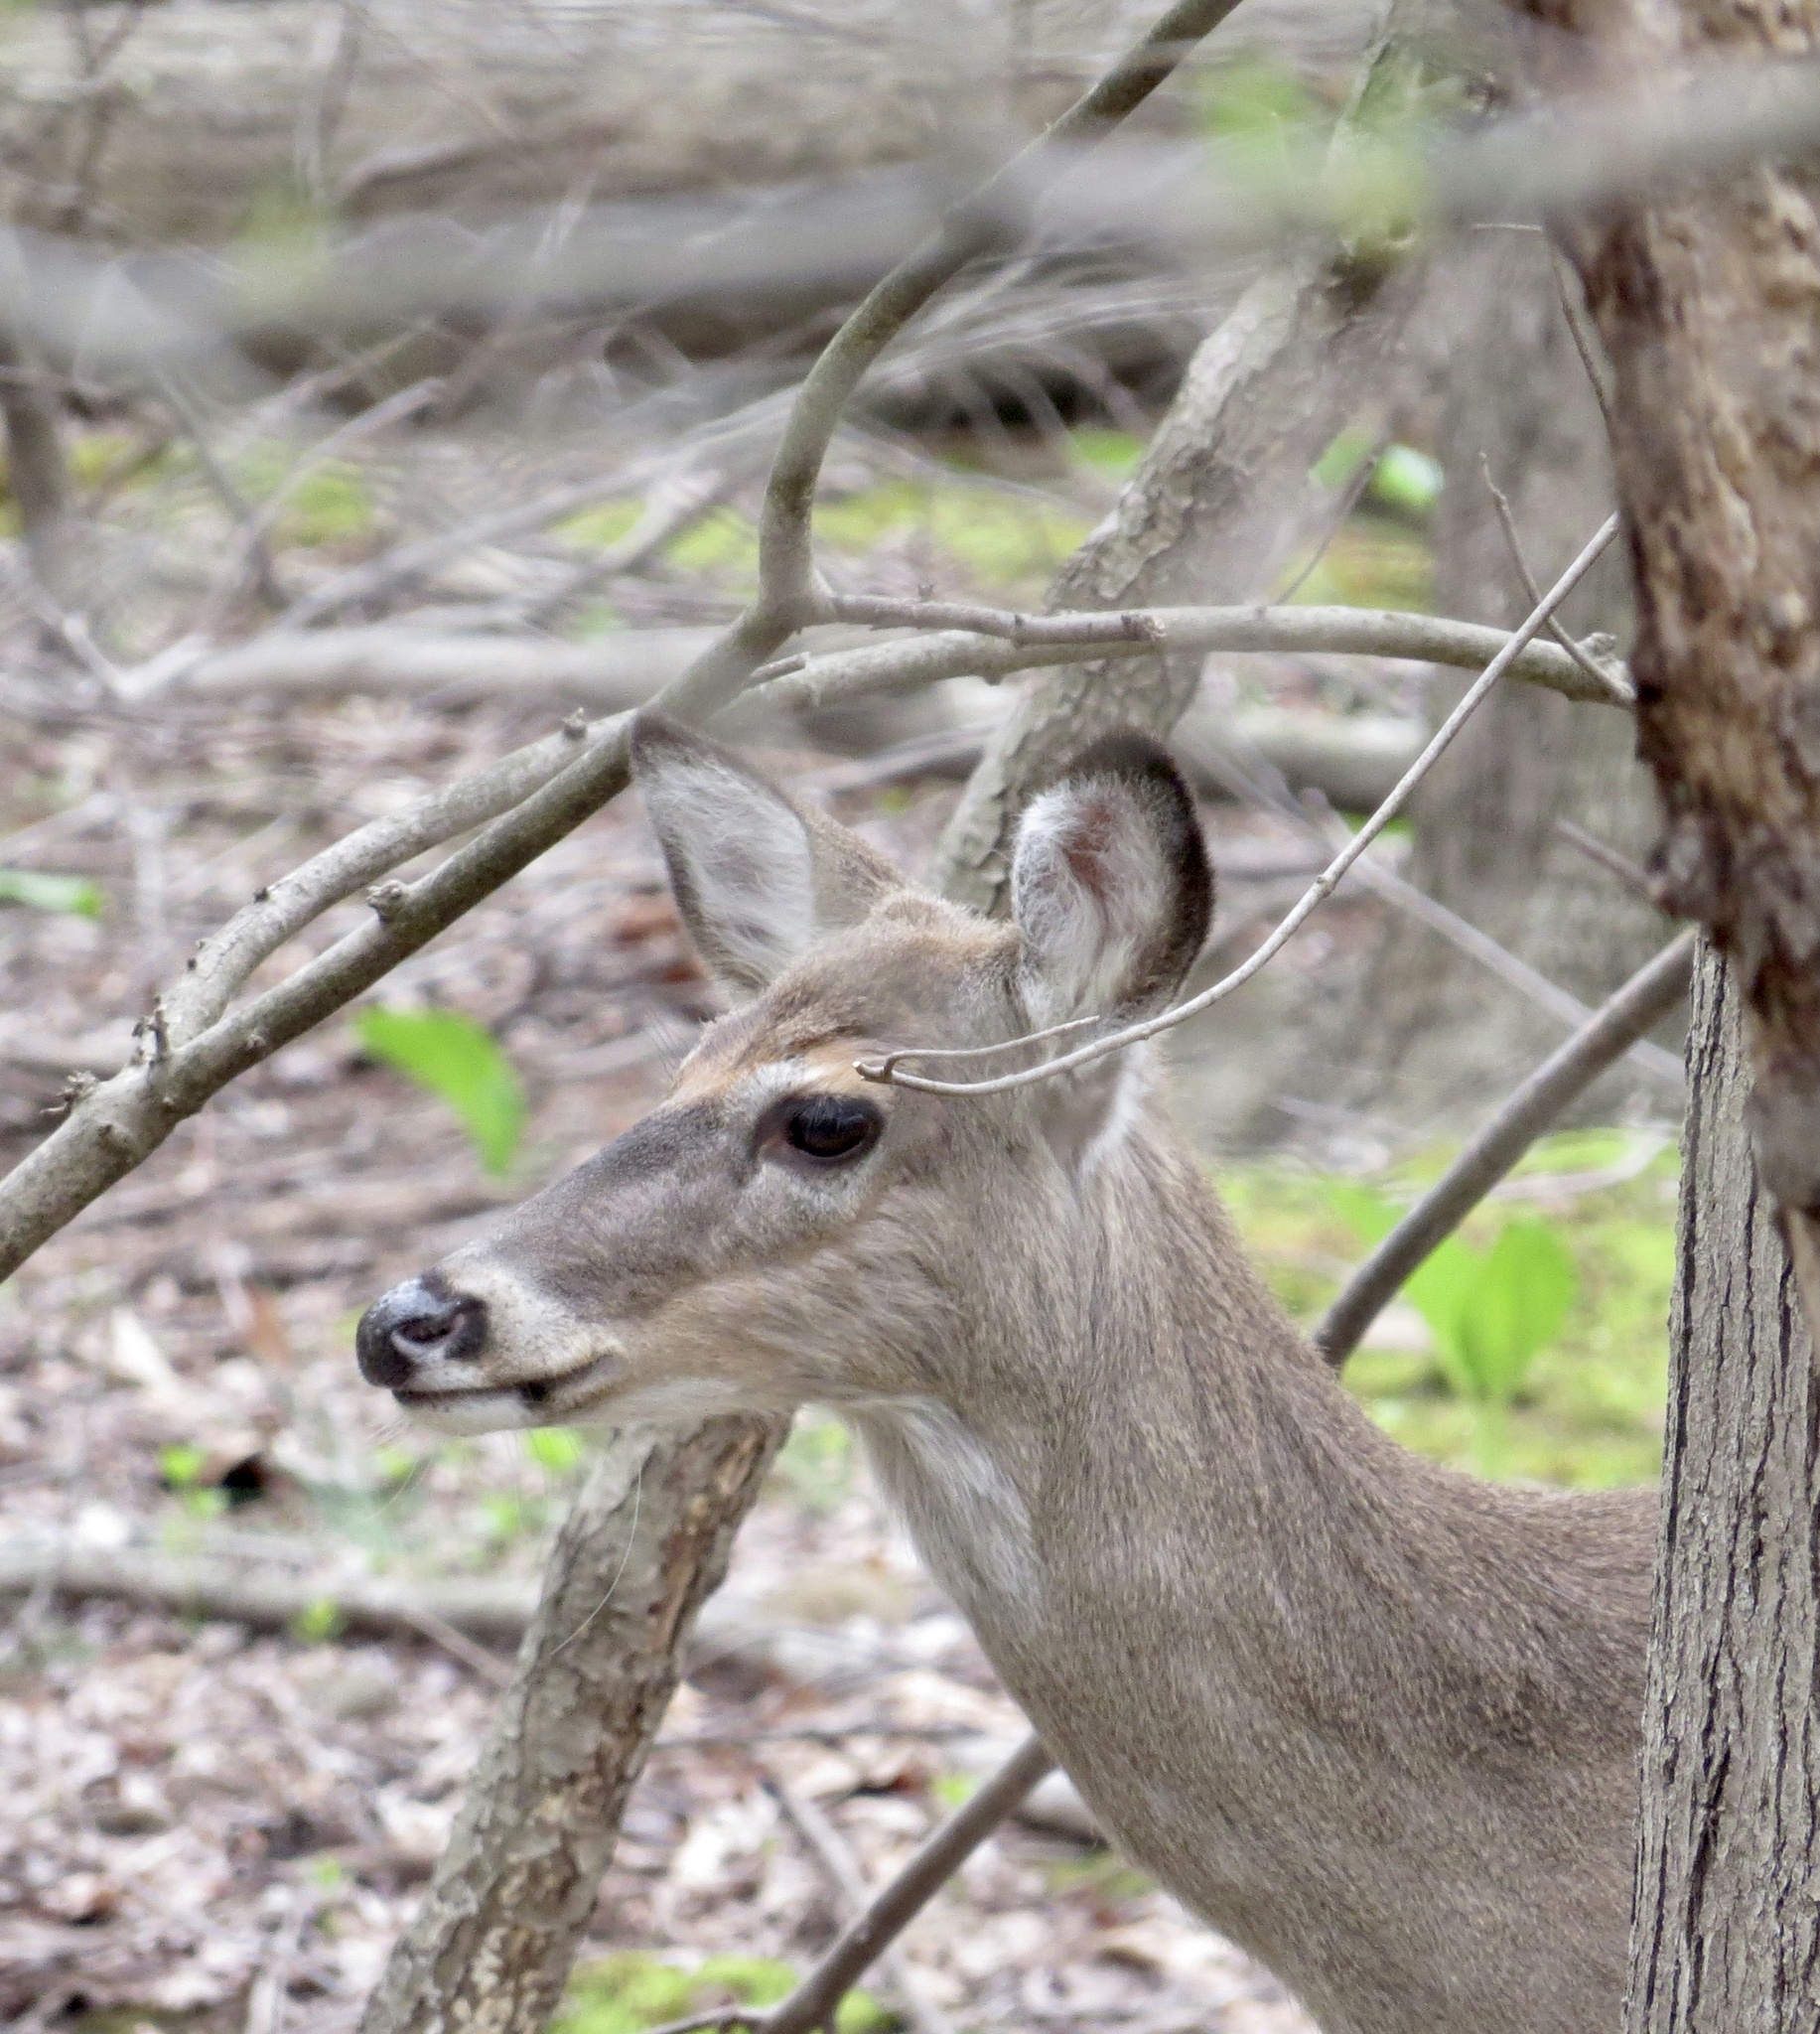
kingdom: Animalia
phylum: Chordata
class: Mammalia
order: Artiodactyla
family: Cervidae
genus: Odocoileus
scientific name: Odocoileus virginianus
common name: White-tailed deer
